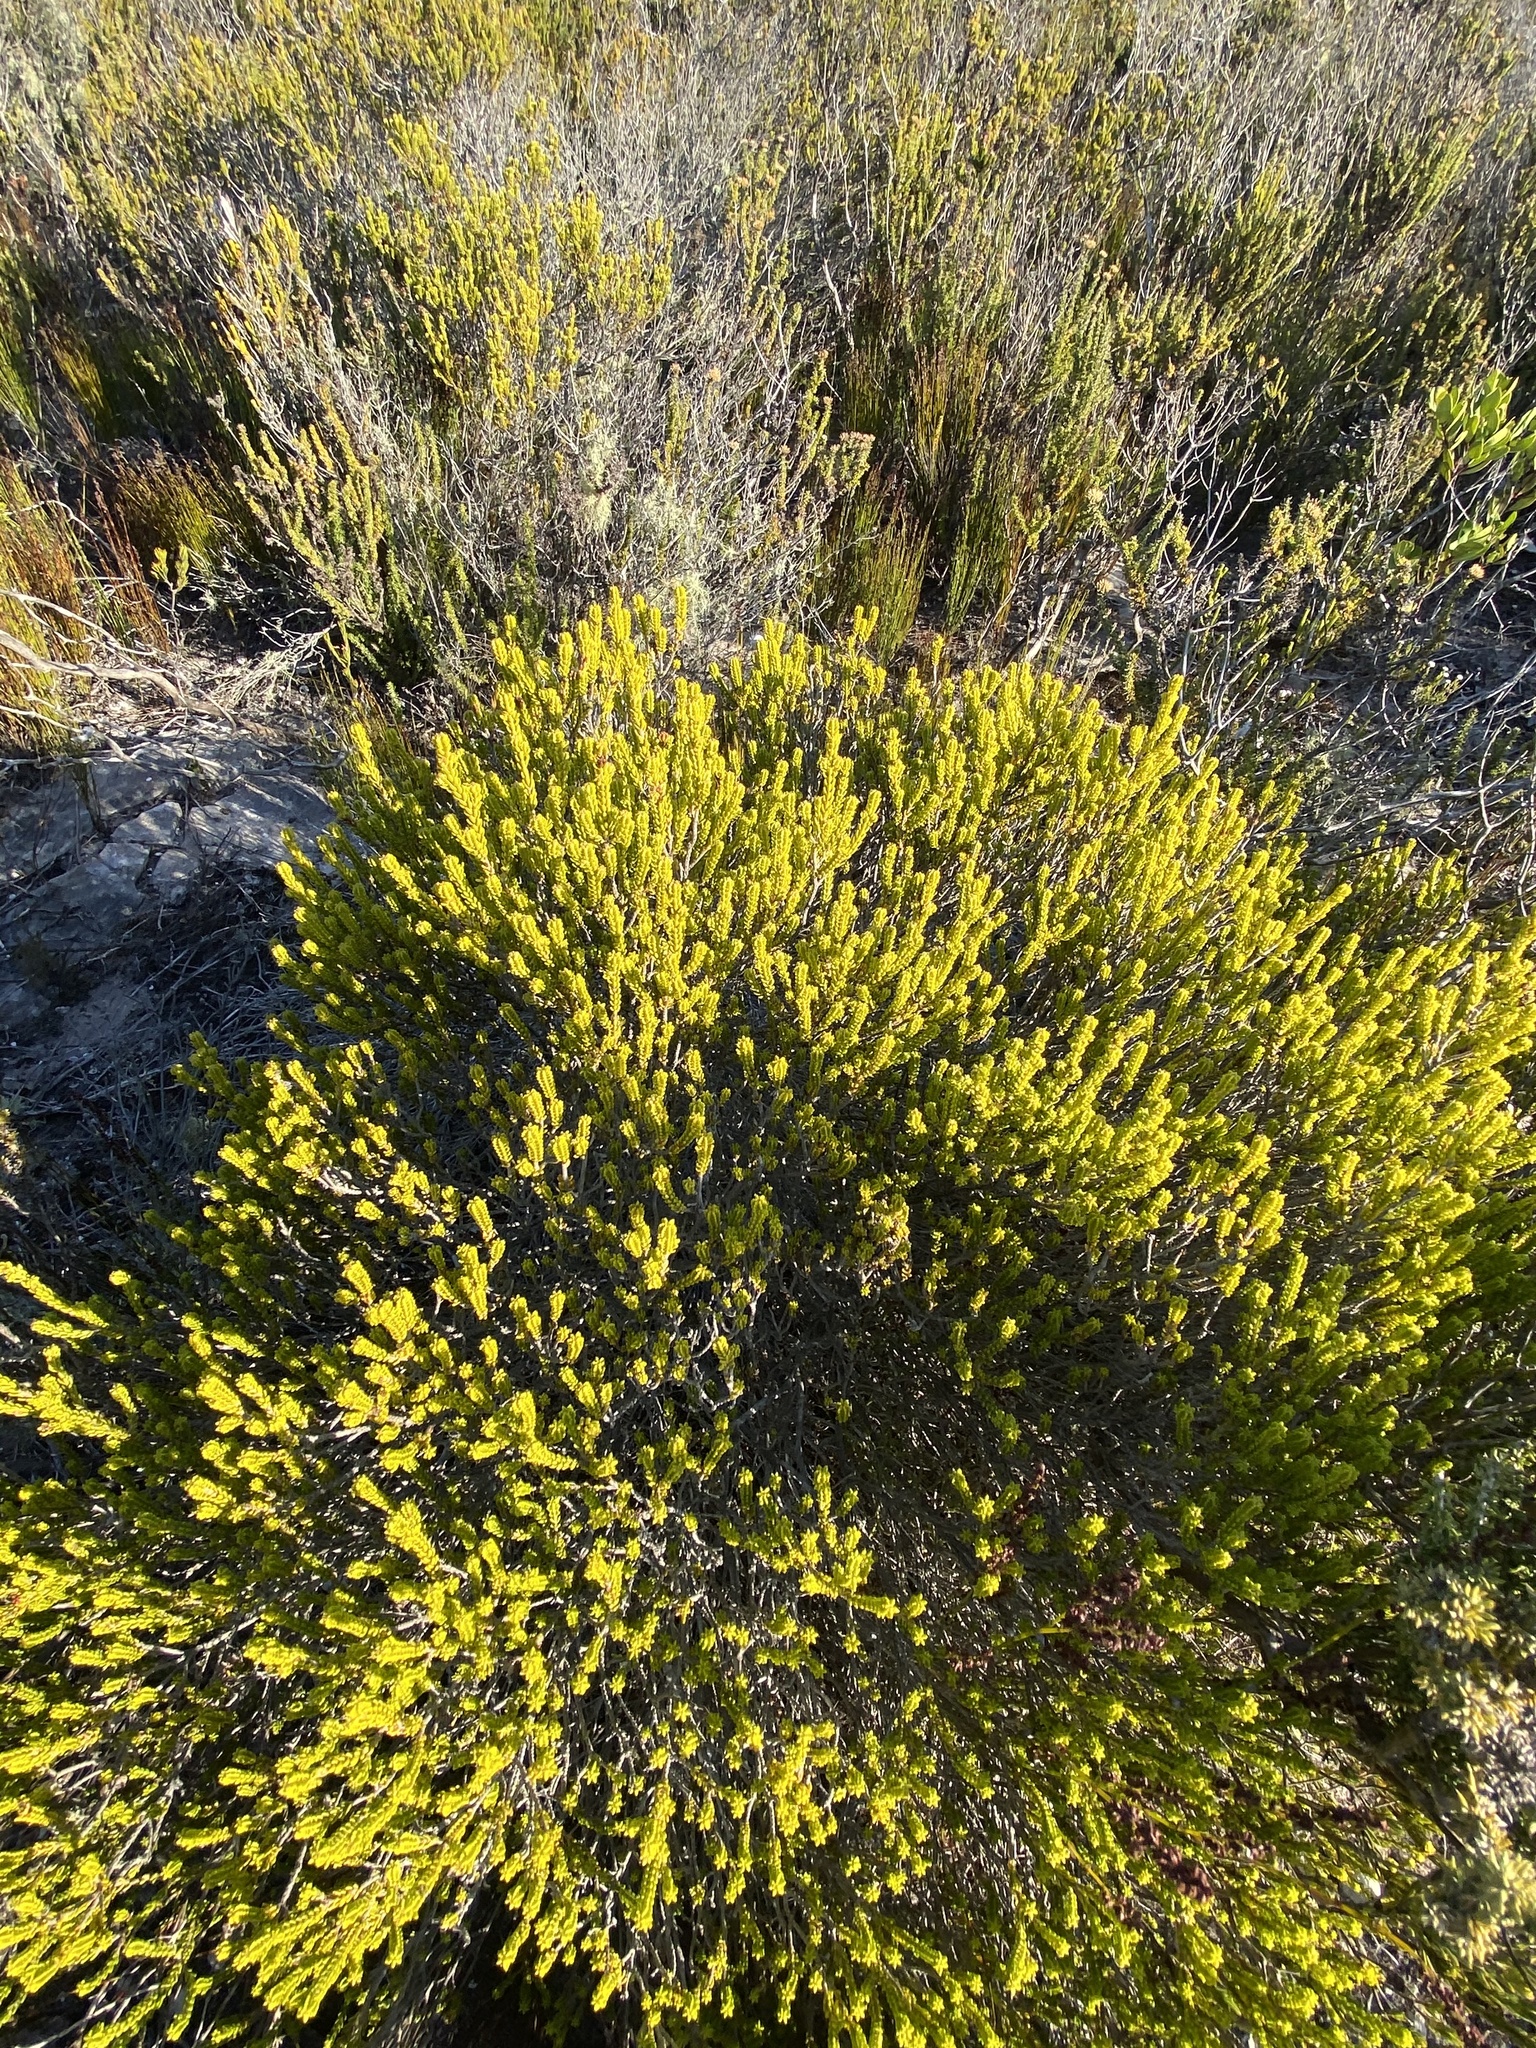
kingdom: Plantae
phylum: Tracheophyta
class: Magnoliopsida
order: Malvales
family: Thymelaeaceae
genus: Passerina
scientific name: Passerina galpinii
